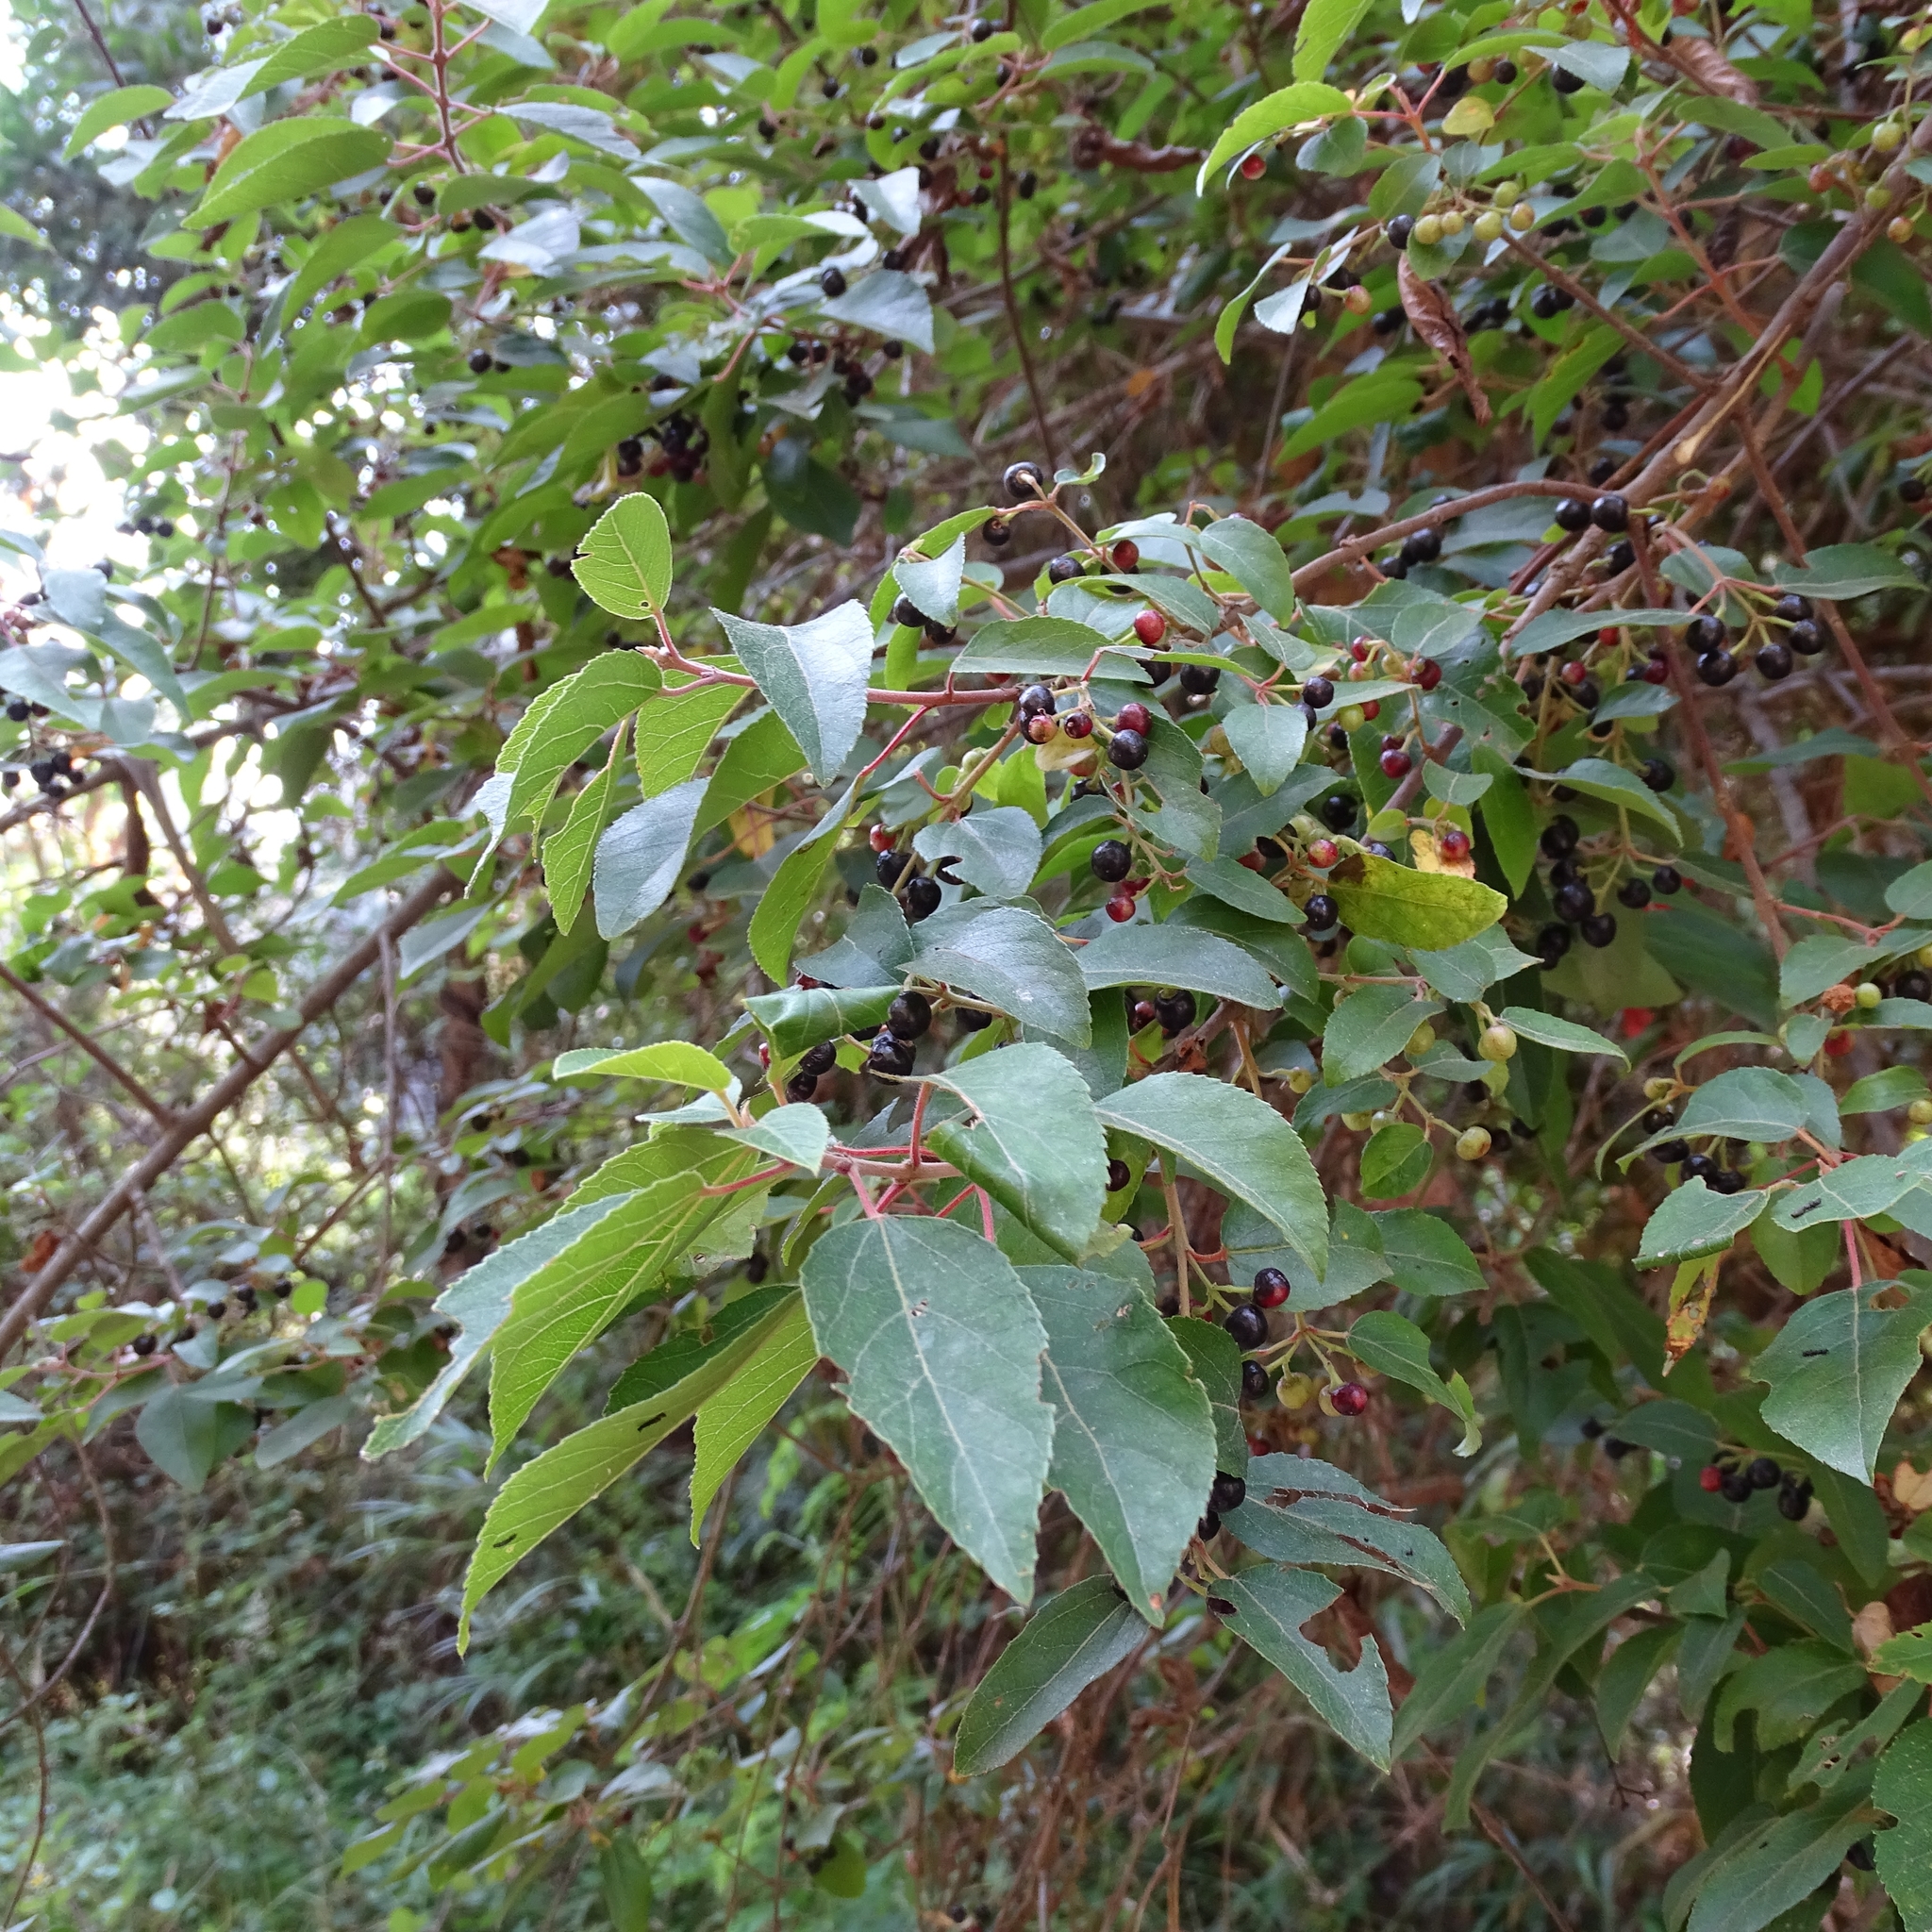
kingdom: Plantae
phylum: Tracheophyta
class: Magnoliopsida
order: Oxalidales
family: Elaeocarpaceae
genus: Aristotelia
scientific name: Aristotelia chilensis
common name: Maquei
